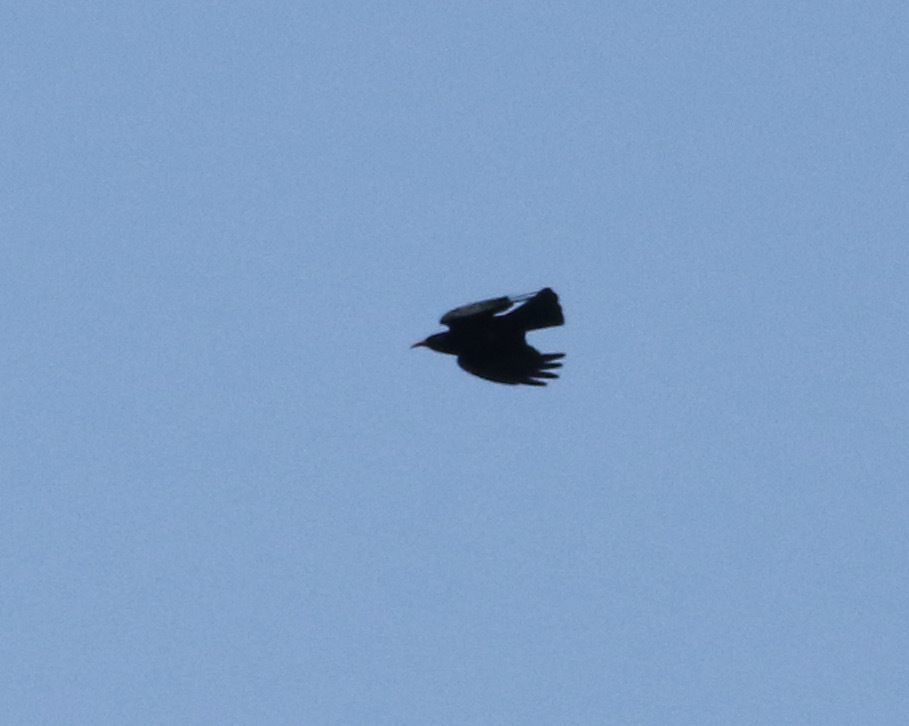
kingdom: Animalia
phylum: Chordata
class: Aves
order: Passeriformes
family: Corvidae
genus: Pyrrhocorax
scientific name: Pyrrhocorax pyrrhocorax
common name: Red-billed chough
